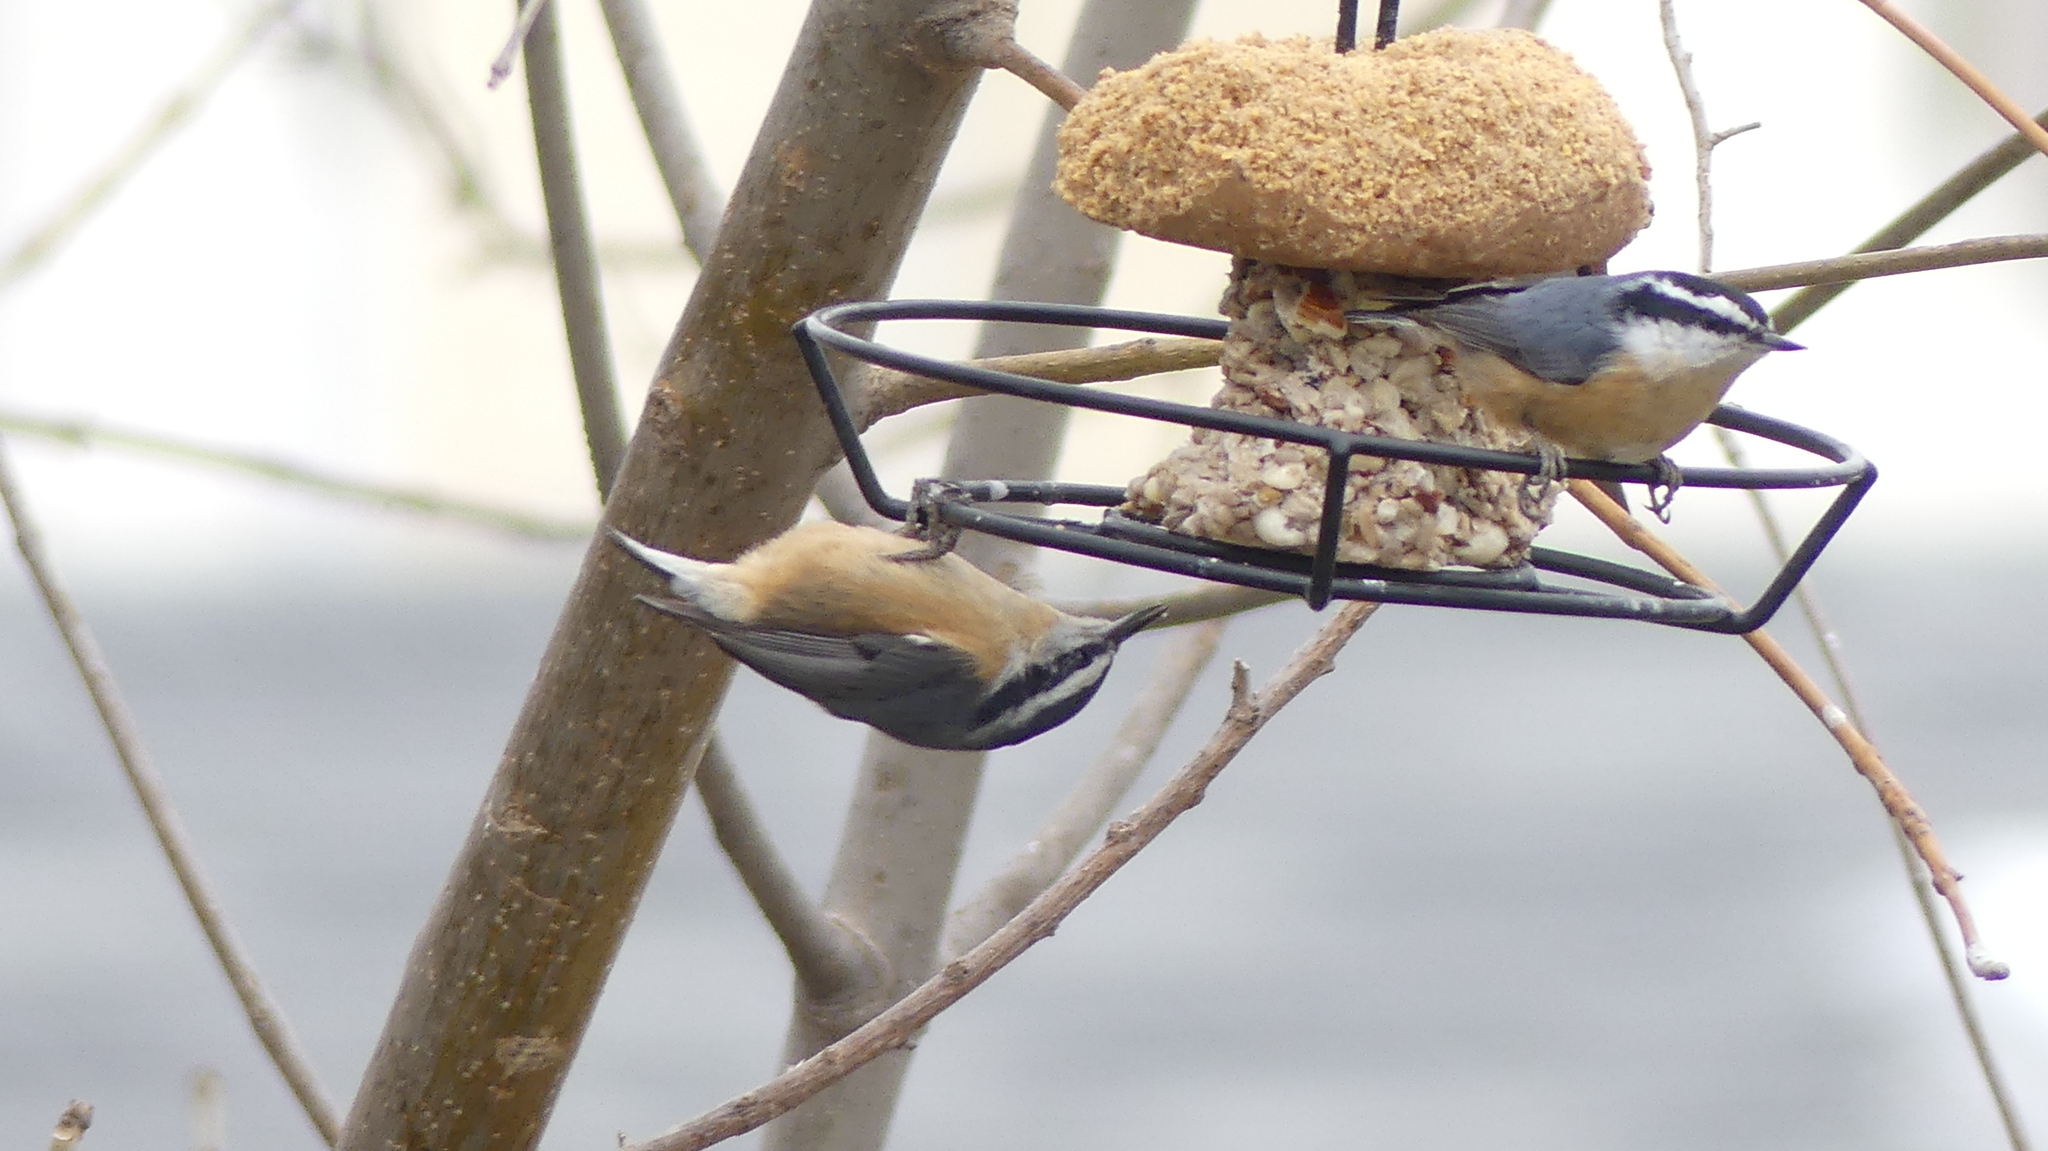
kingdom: Animalia
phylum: Chordata
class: Aves
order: Passeriformes
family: Sittidae
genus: Sitta
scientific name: Sitta canadensis
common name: Red-breasted nuthatch
